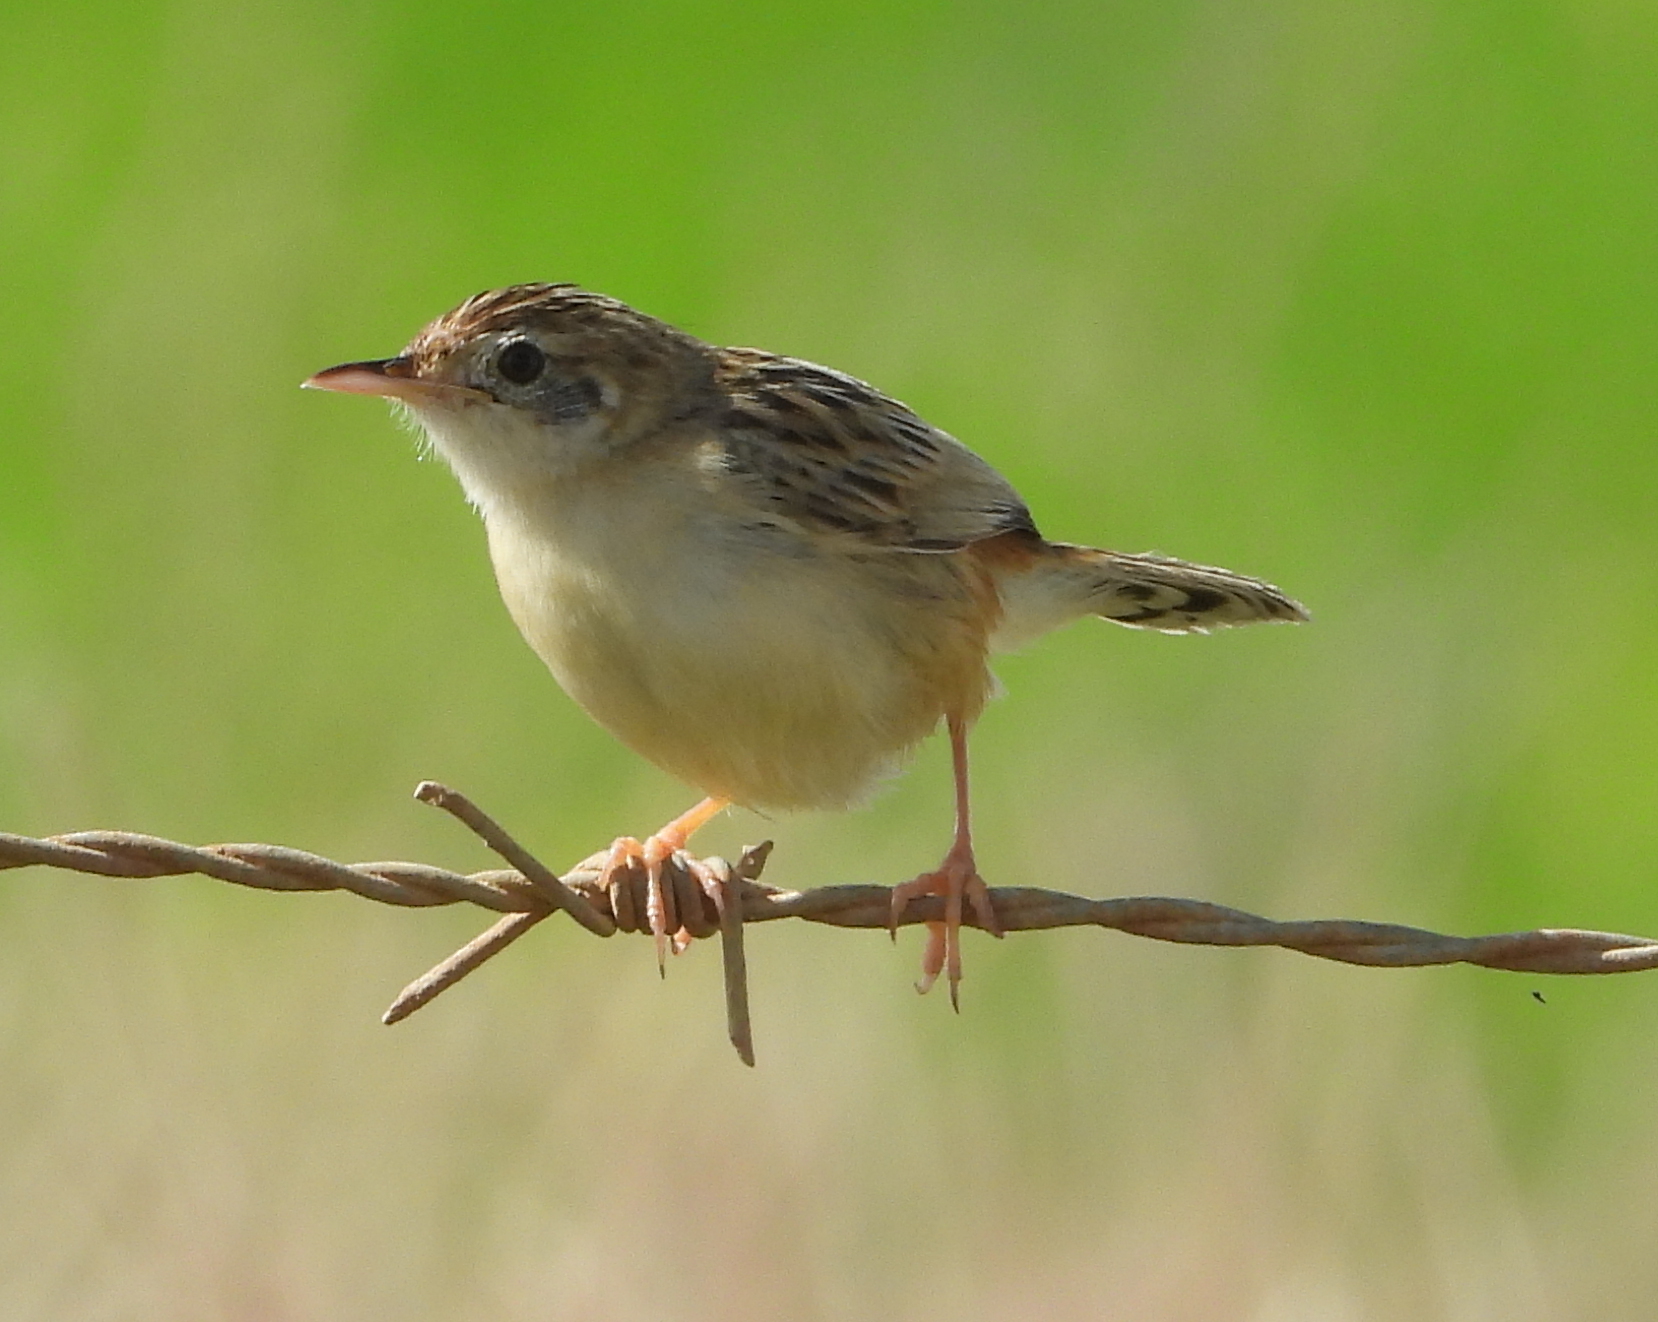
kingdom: Animalia
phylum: Chordata
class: Aves
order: Passeriformes
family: Cisticolidae
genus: Cisticola
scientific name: Cisticola juncidis
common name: Zitting cisticola
